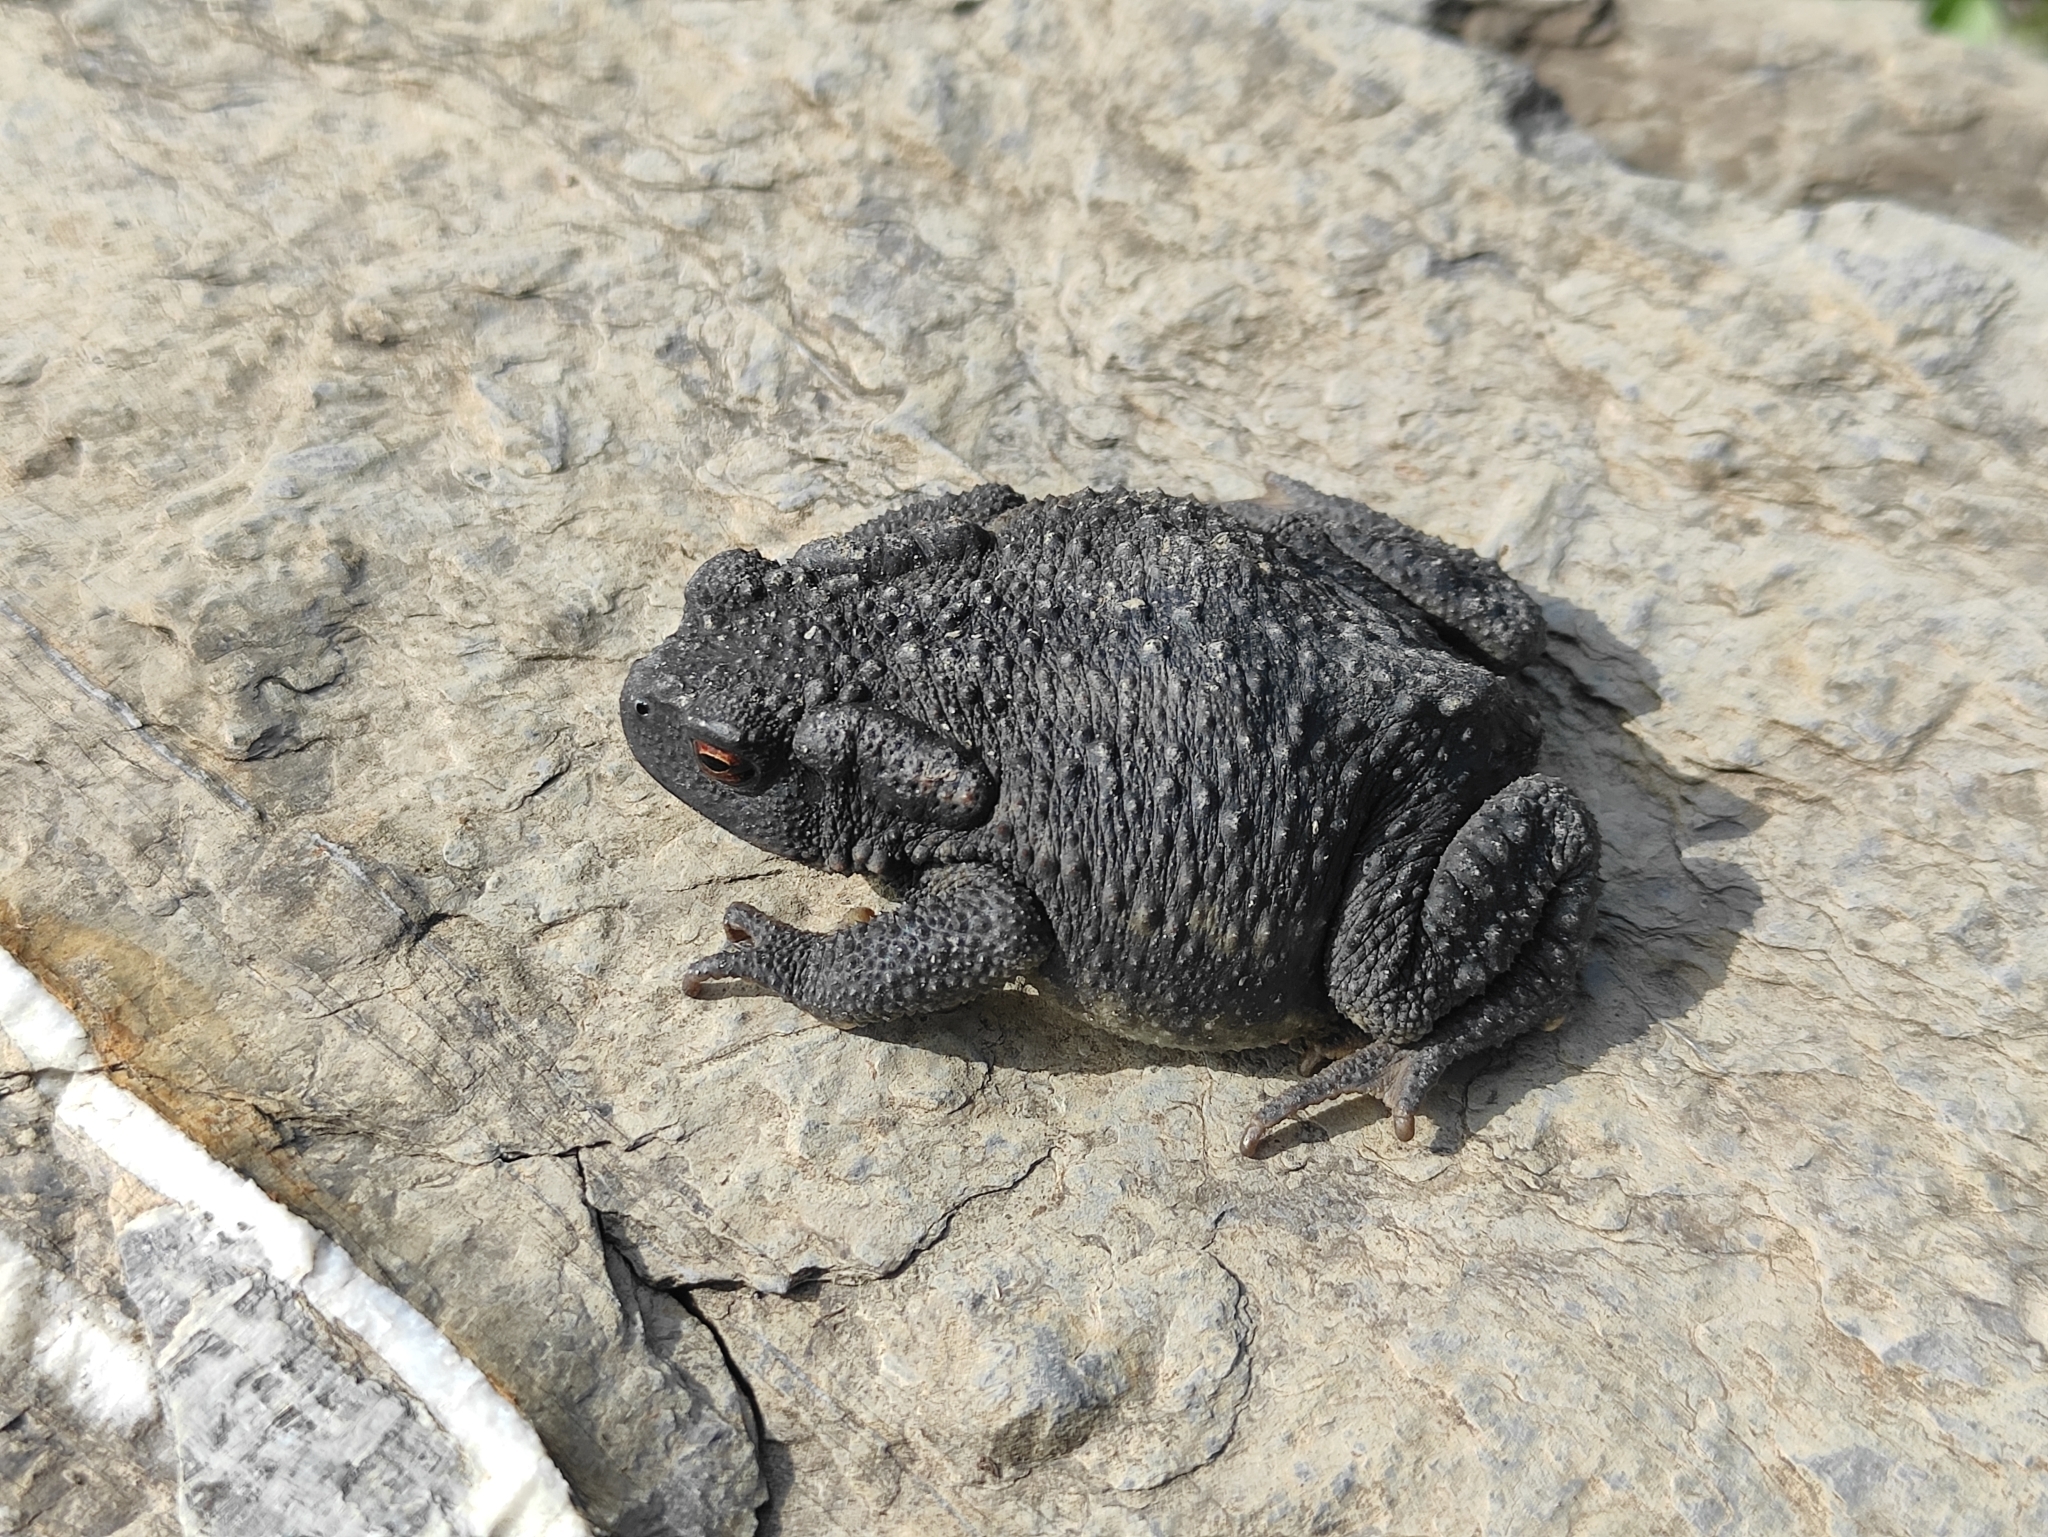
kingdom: Animalia
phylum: Chordata
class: Amphibia
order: Anura
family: Bufonidae
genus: Bufo
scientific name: Bufo spinosus
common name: Western common toad
